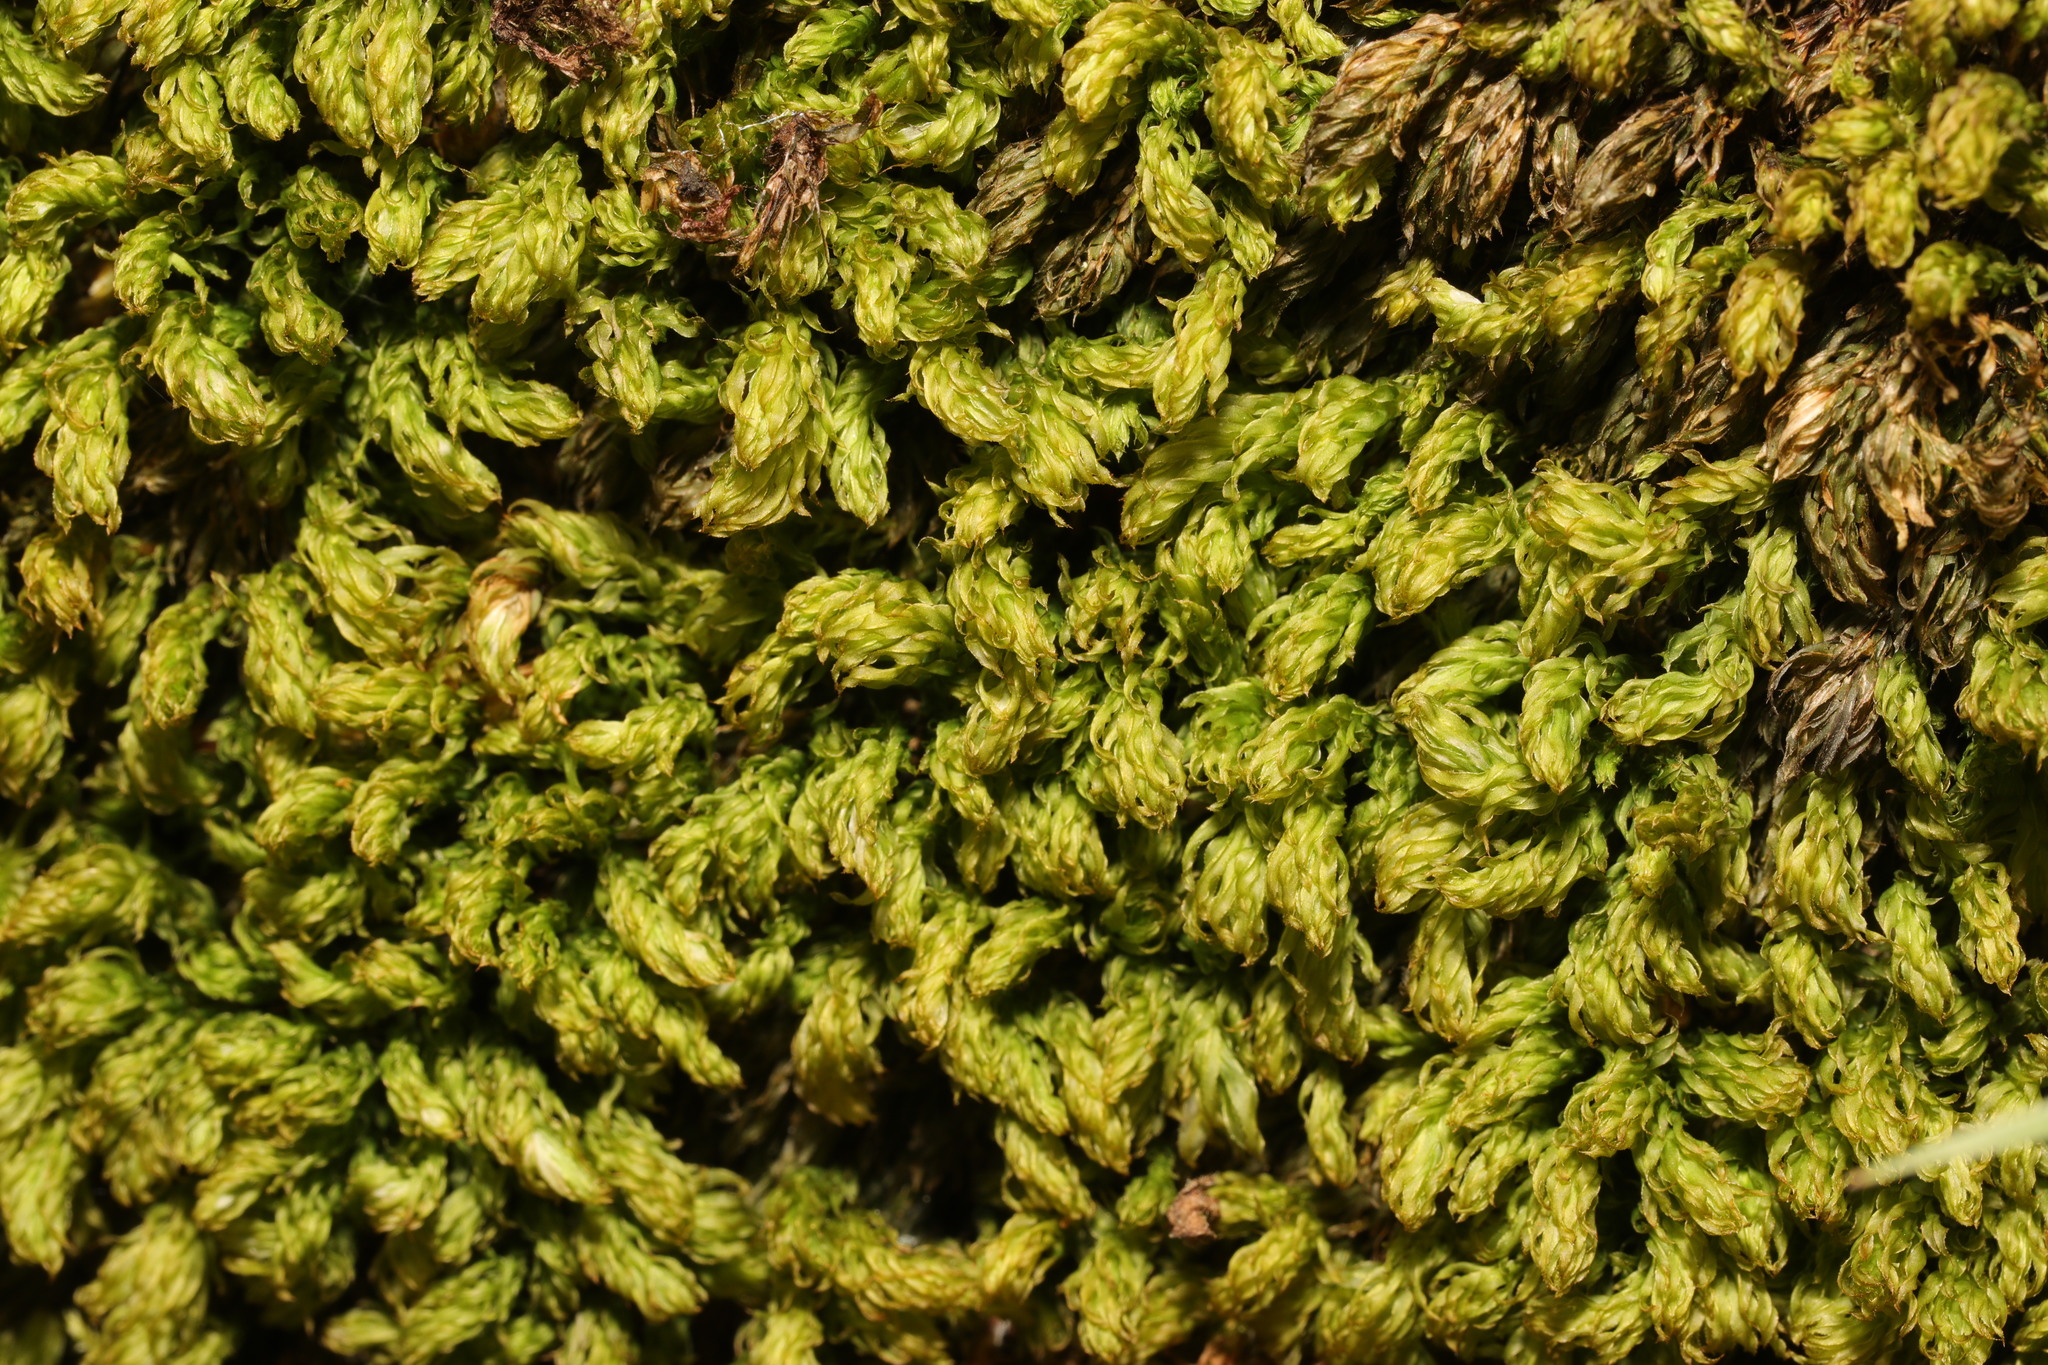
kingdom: Plantae
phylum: Bryophyta
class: Bryopsida
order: Bryales
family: Mniaceae
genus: Mnium
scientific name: Mnium hornum
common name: Swan's-neck leafy moss
